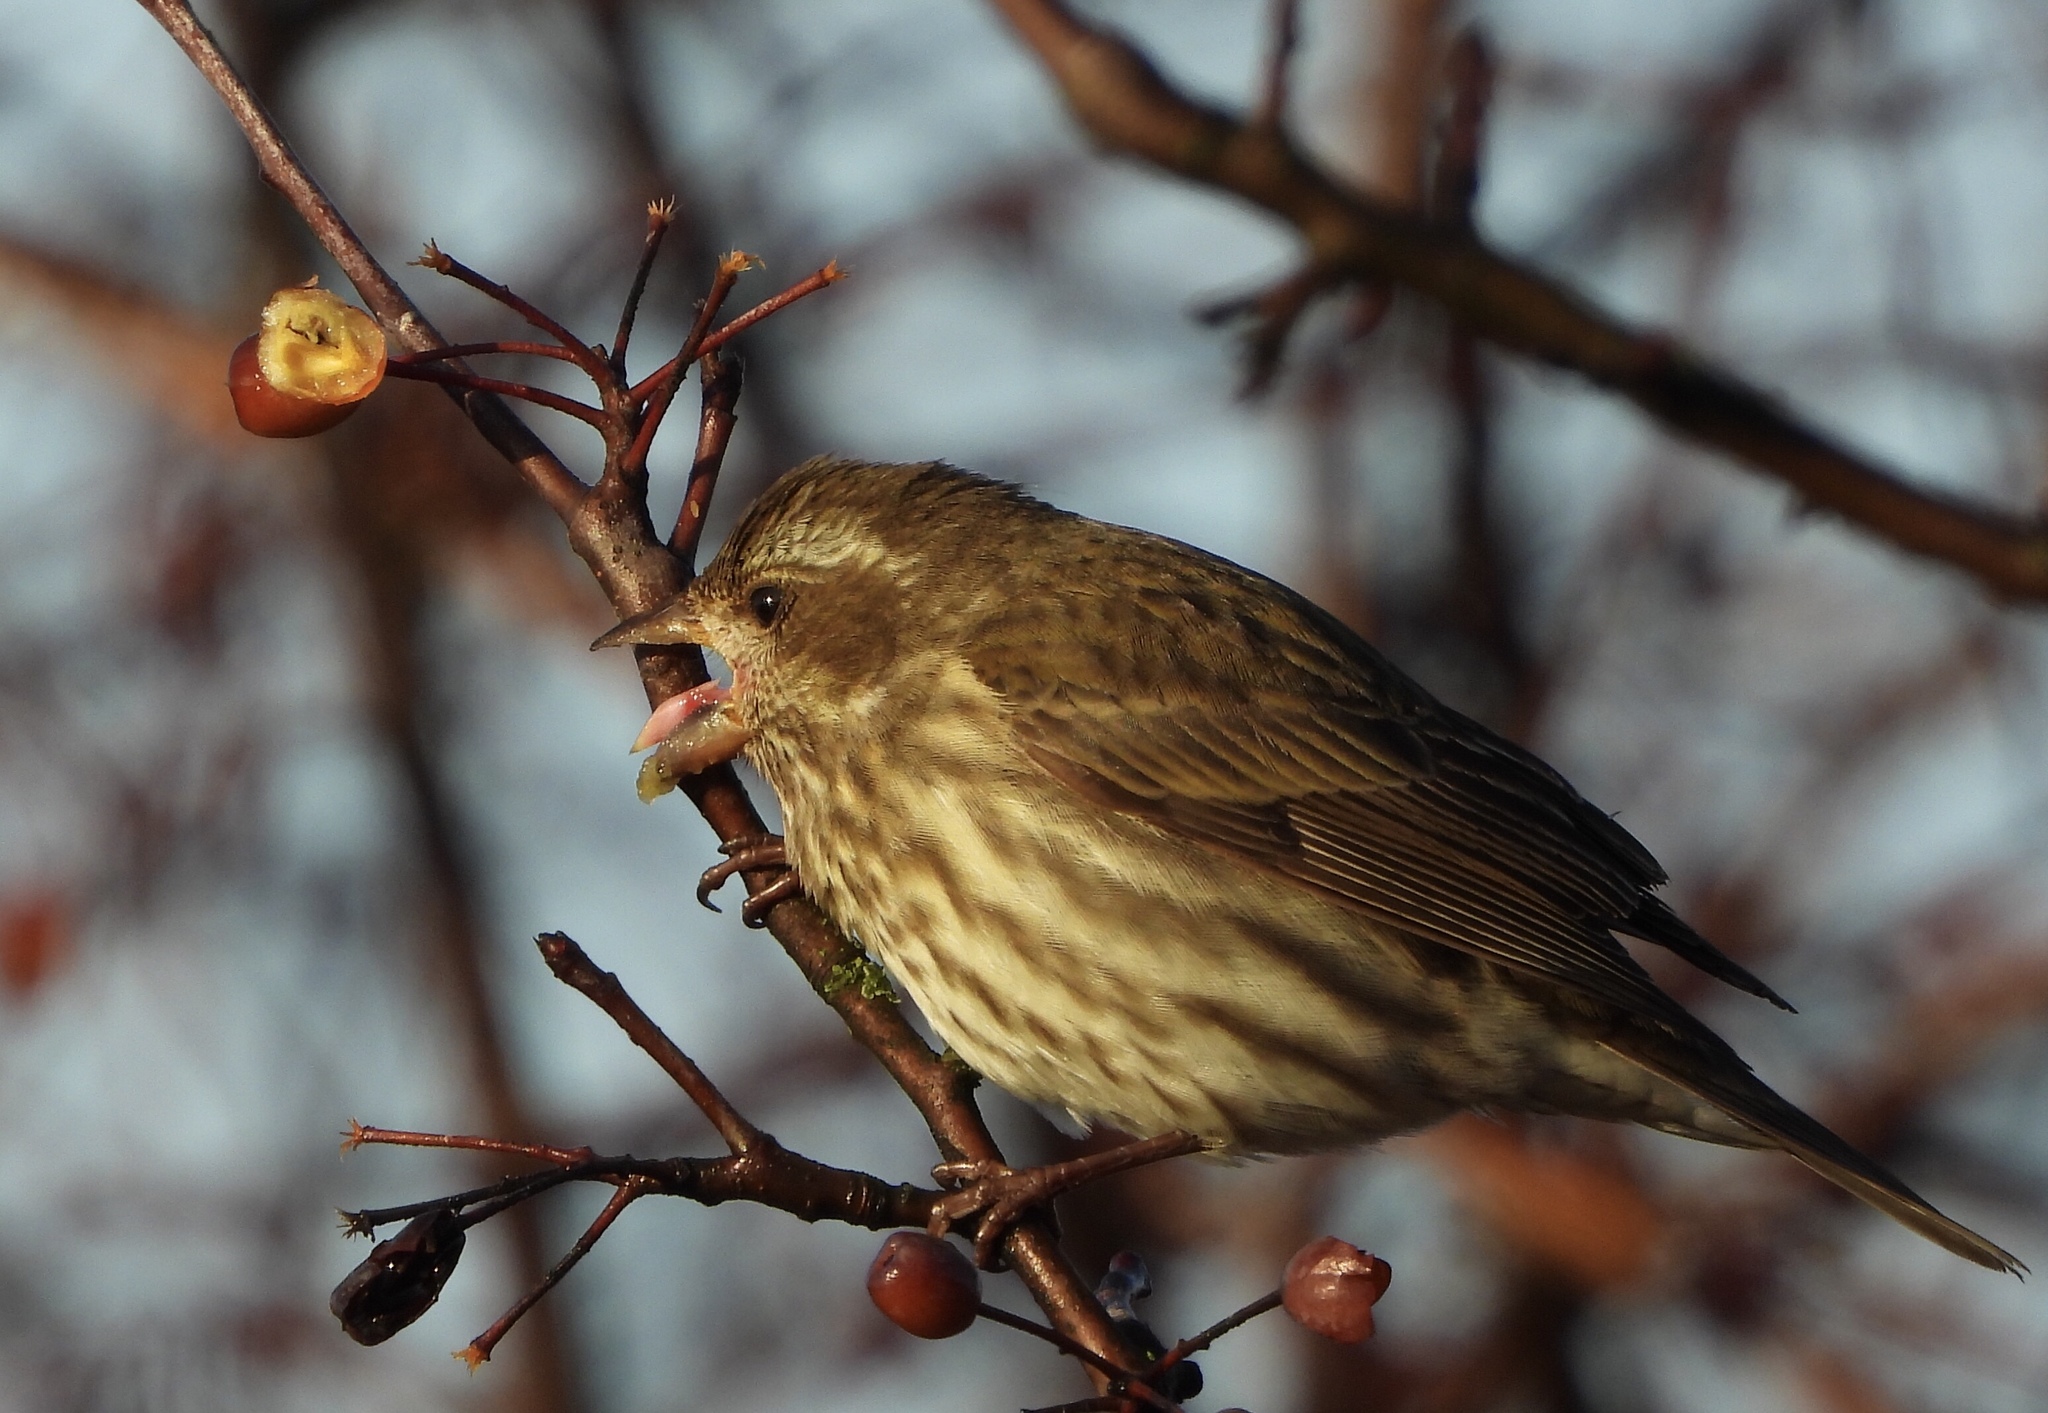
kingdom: Animalia
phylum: Chordata
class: Aves
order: Passeriformes
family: Fringillidae
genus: Haemorhous
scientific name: Haemorhous purpureus
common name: Purple finch
